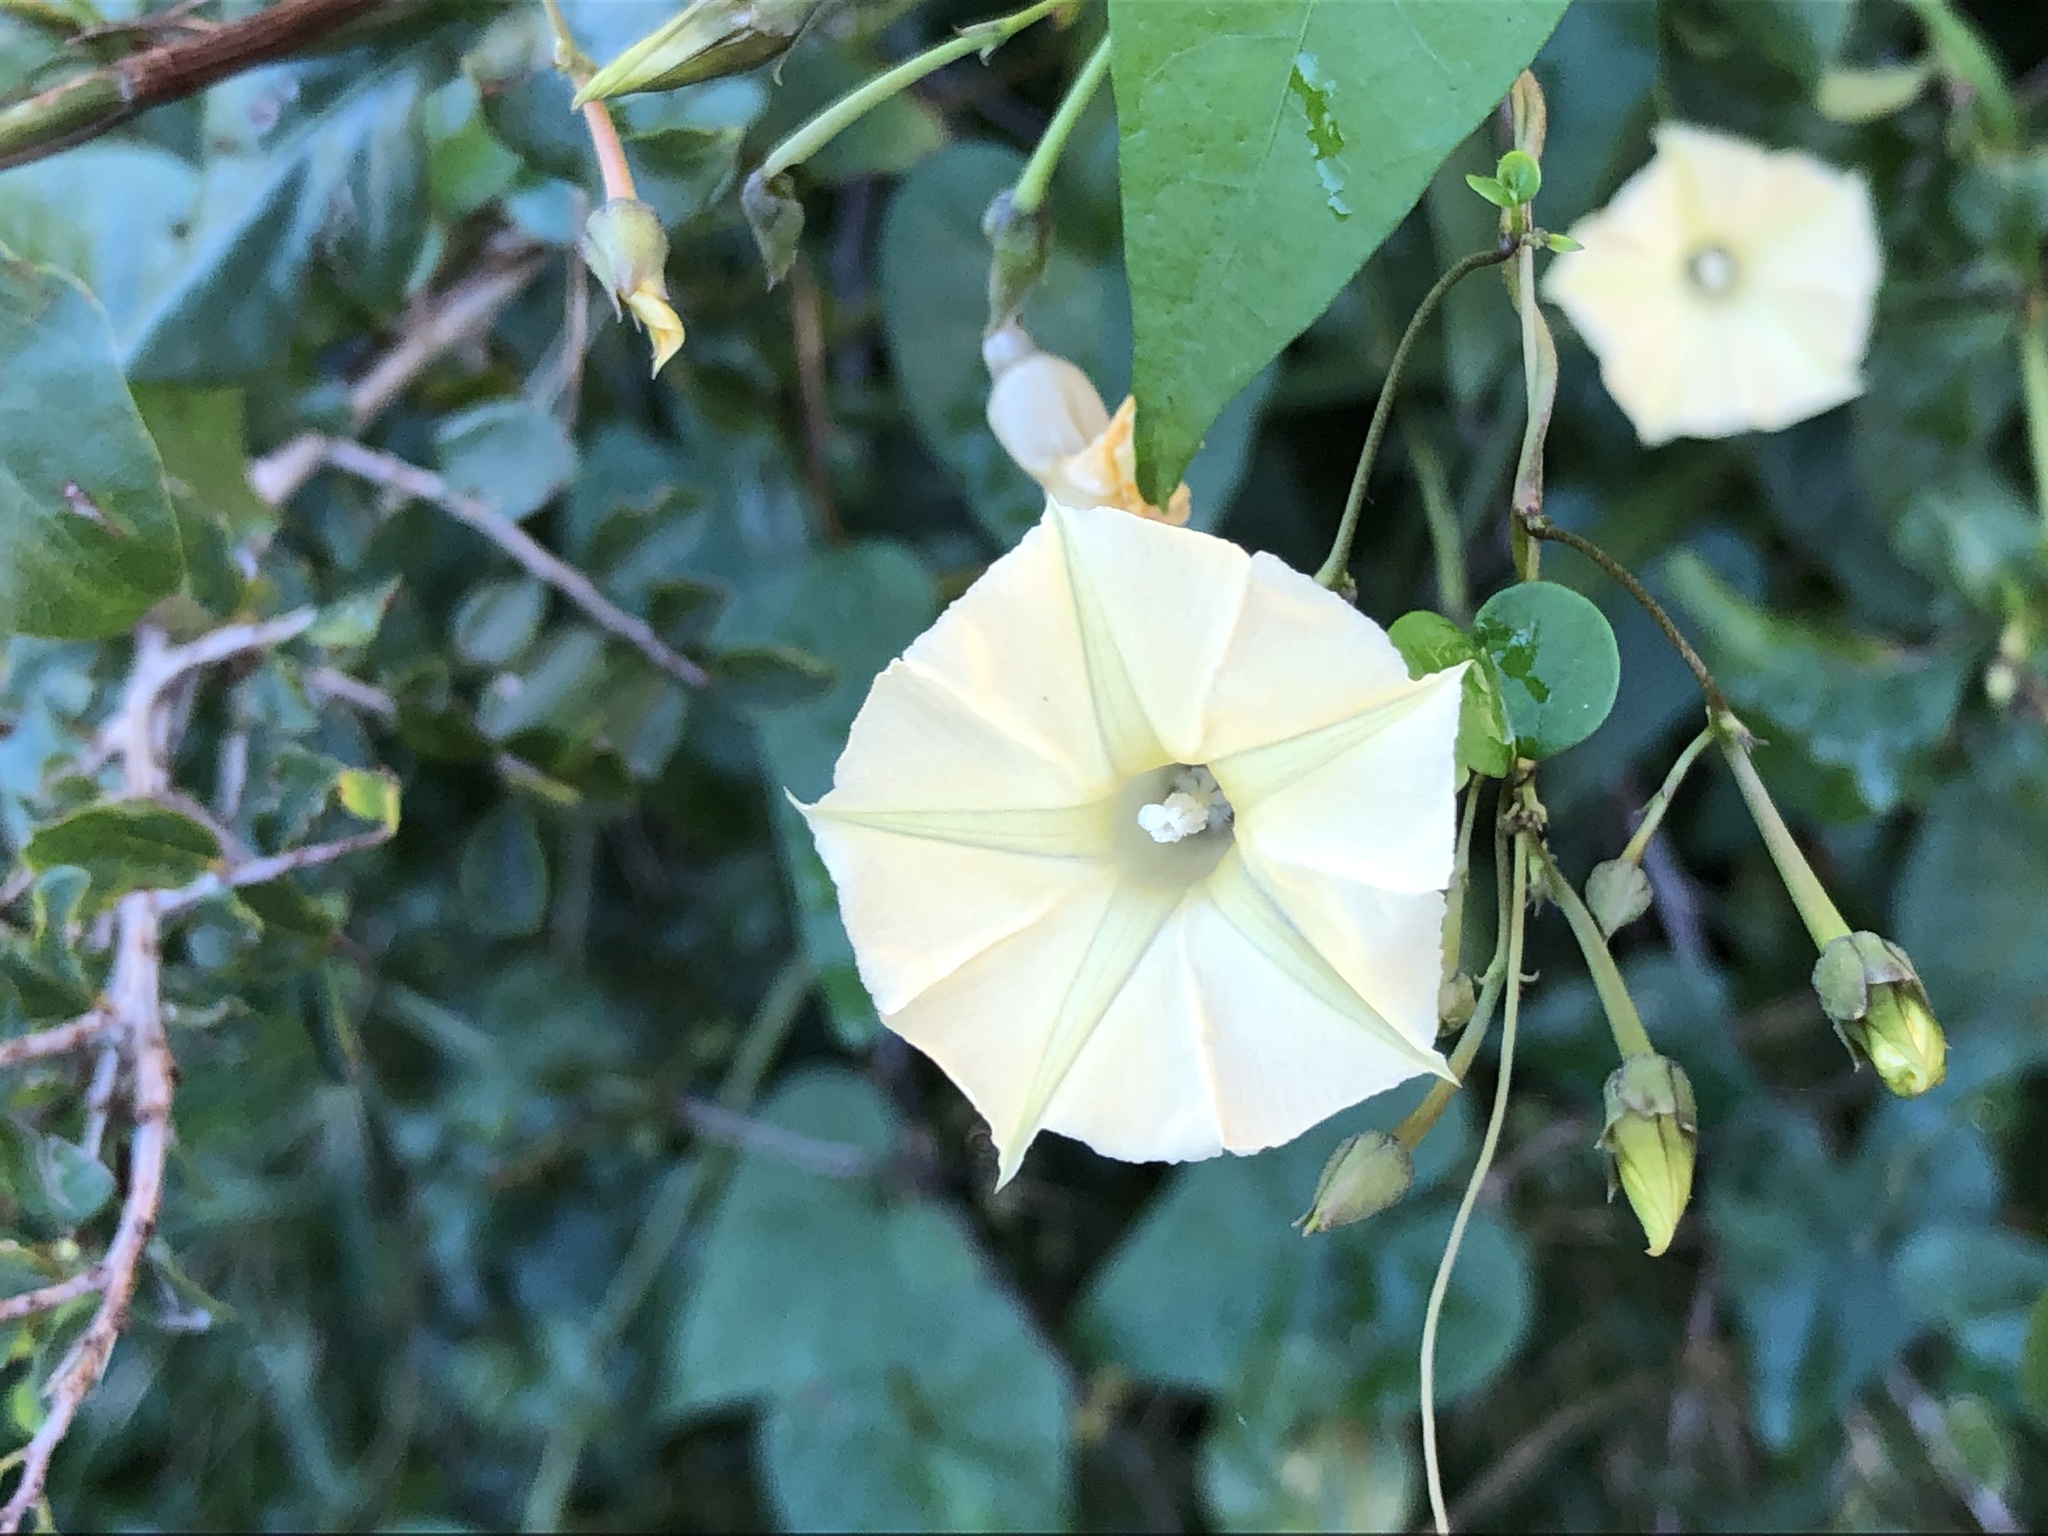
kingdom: Plantae
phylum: Tracheophyta
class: Magnoliopsida
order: Solanales
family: Convolvulaceae
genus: Ipomoea
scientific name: Ipomoea obscura
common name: Obscure morning-glory
